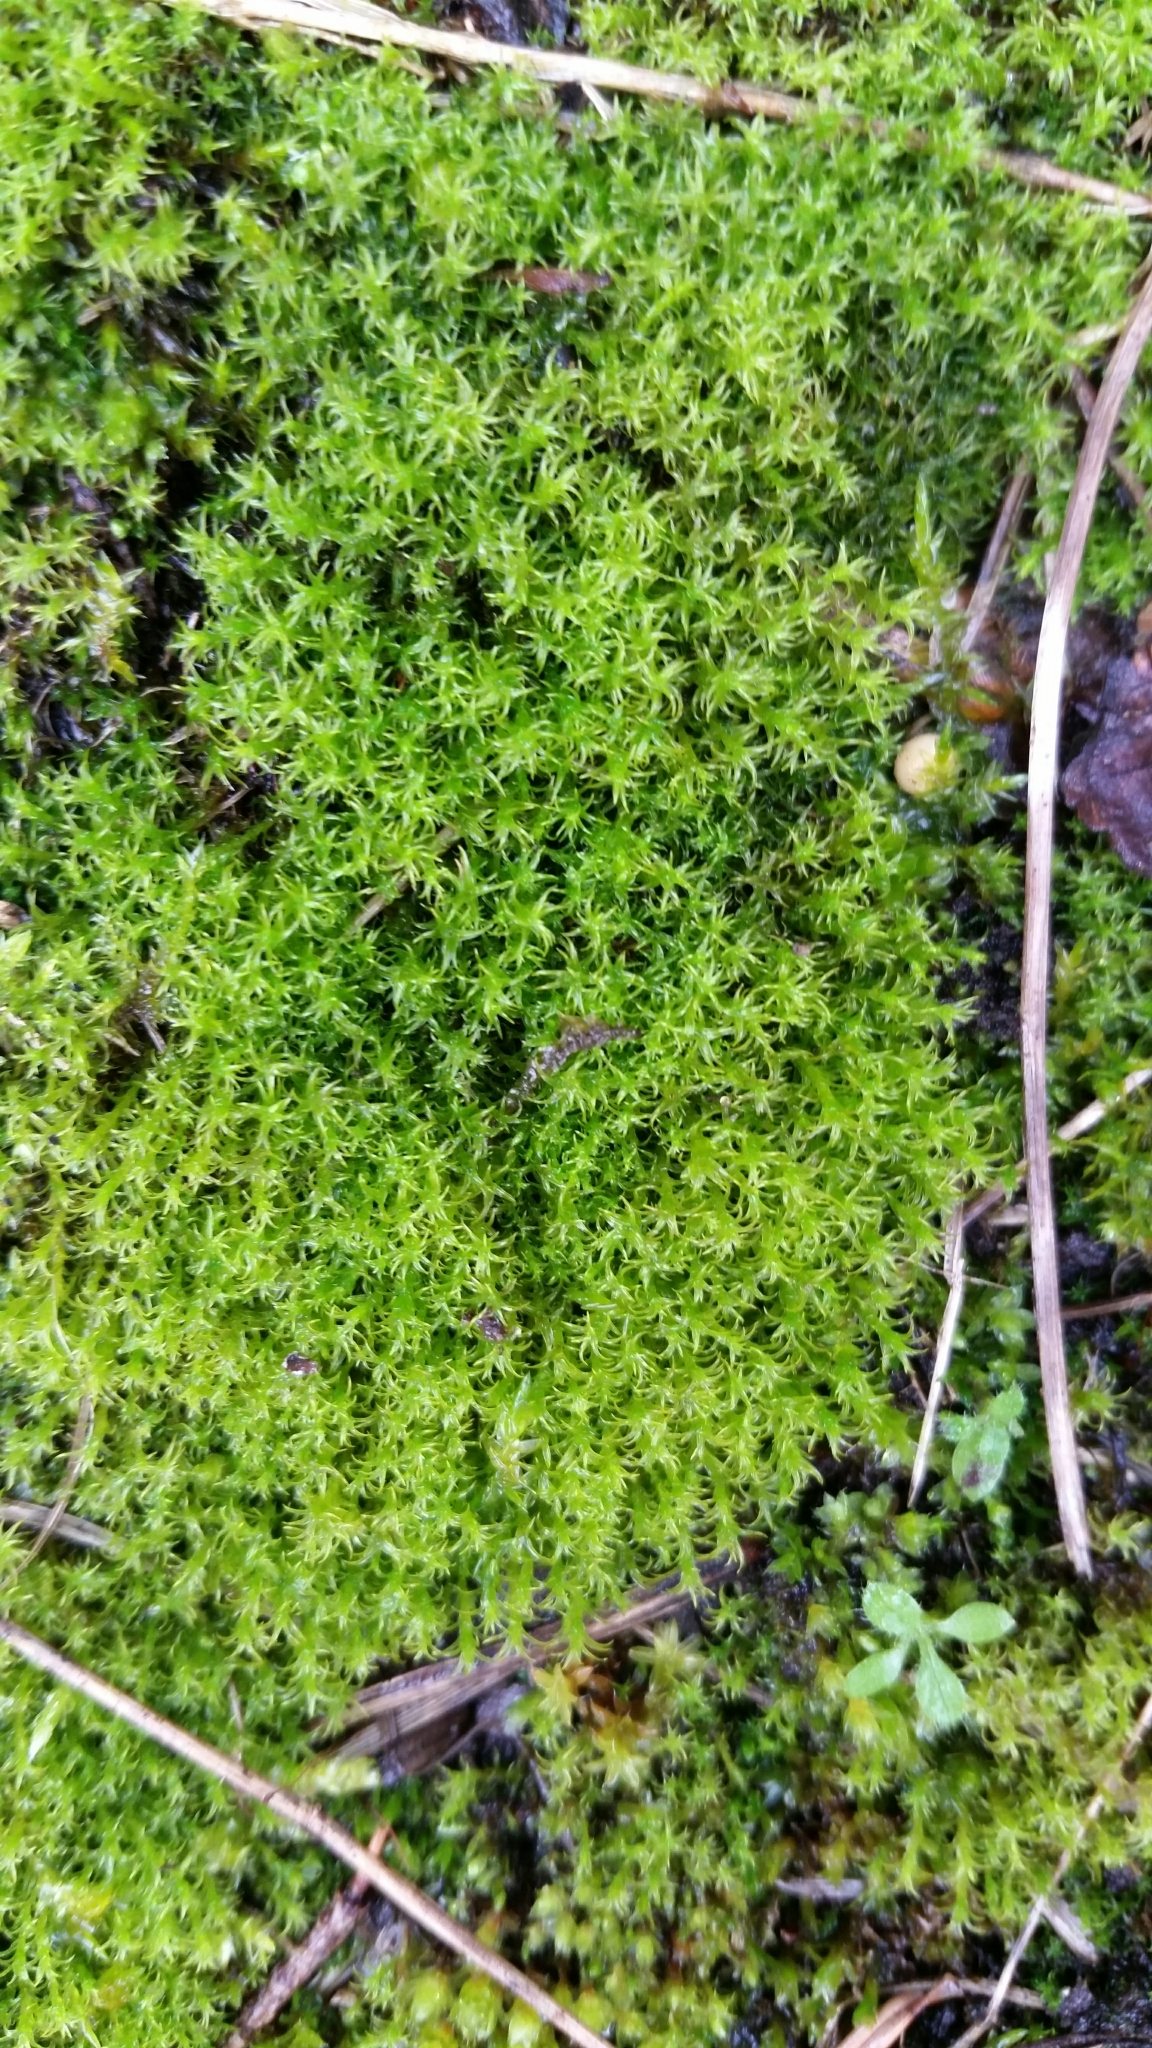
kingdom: Plantae
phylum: Bryophyta
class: Bryopsida
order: Pottiales
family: Pottiaceae
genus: Vinealobryum
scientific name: Vinealobryum insulanum
